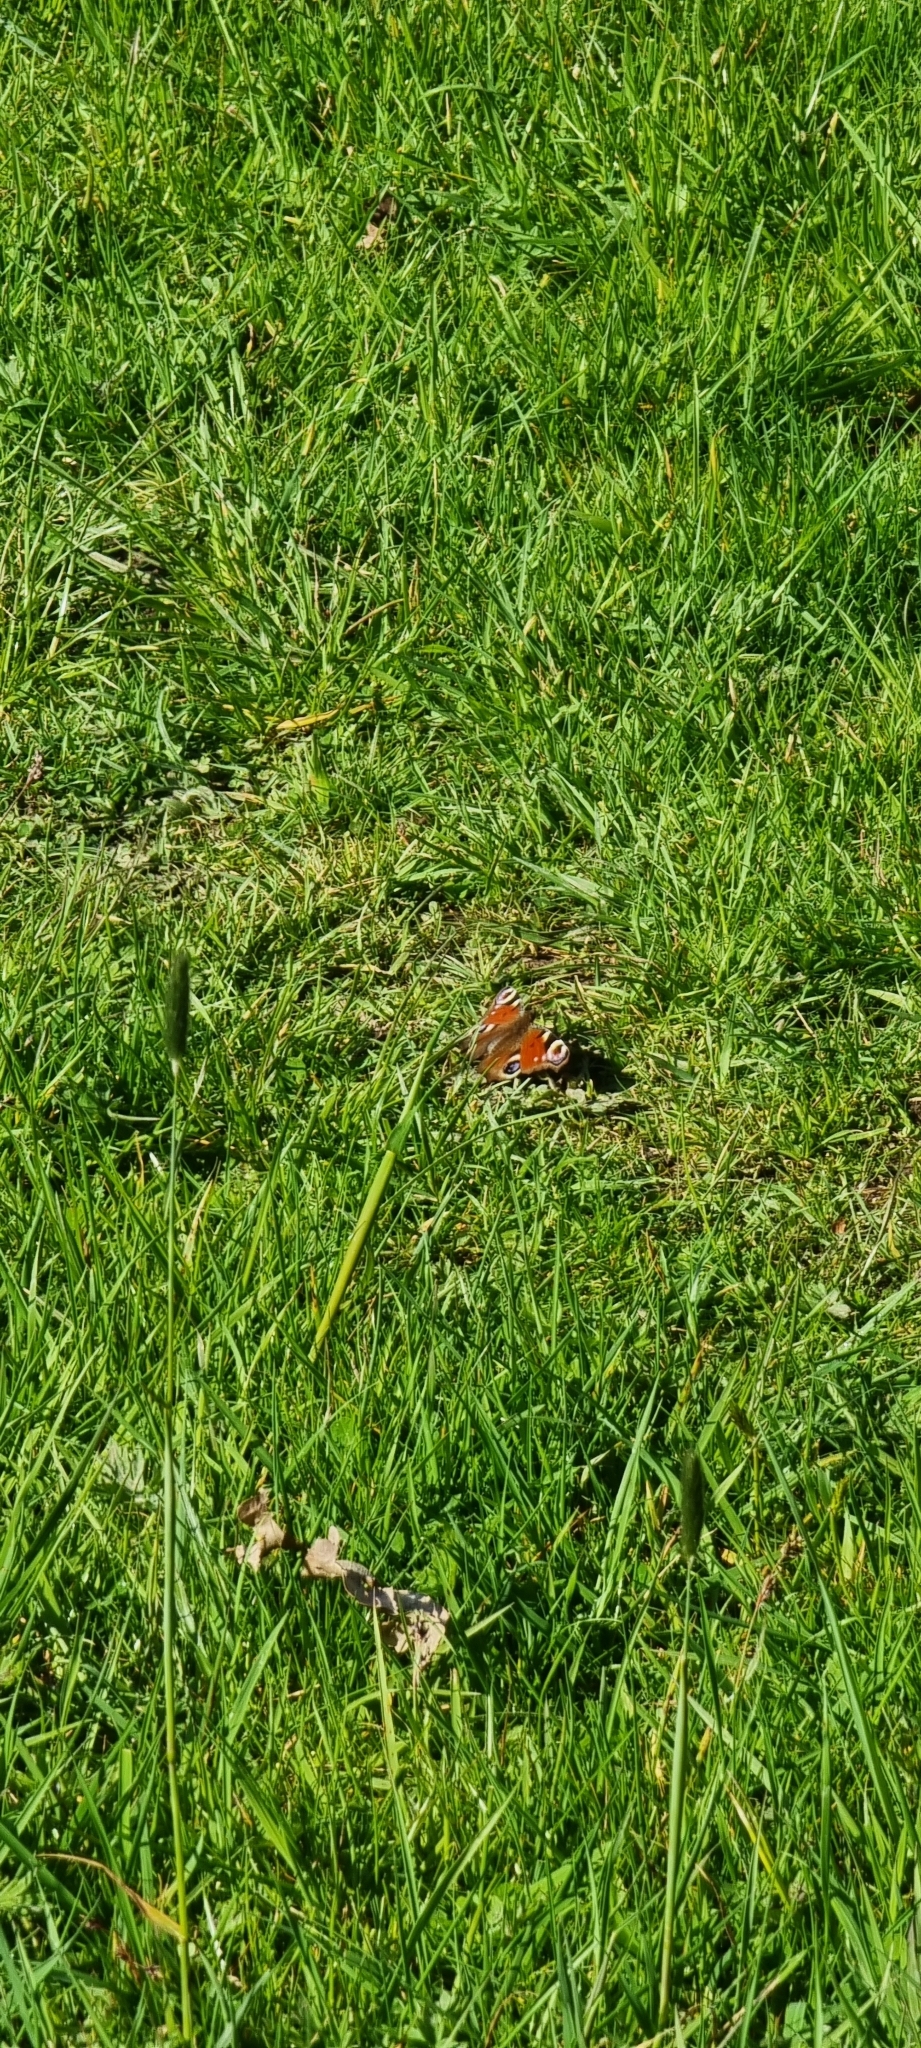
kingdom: Animalia
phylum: Arthropoda
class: Insecta
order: Lepidoptera
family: Nymphalidae
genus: Aglais
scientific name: Aglais io
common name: Peacock
